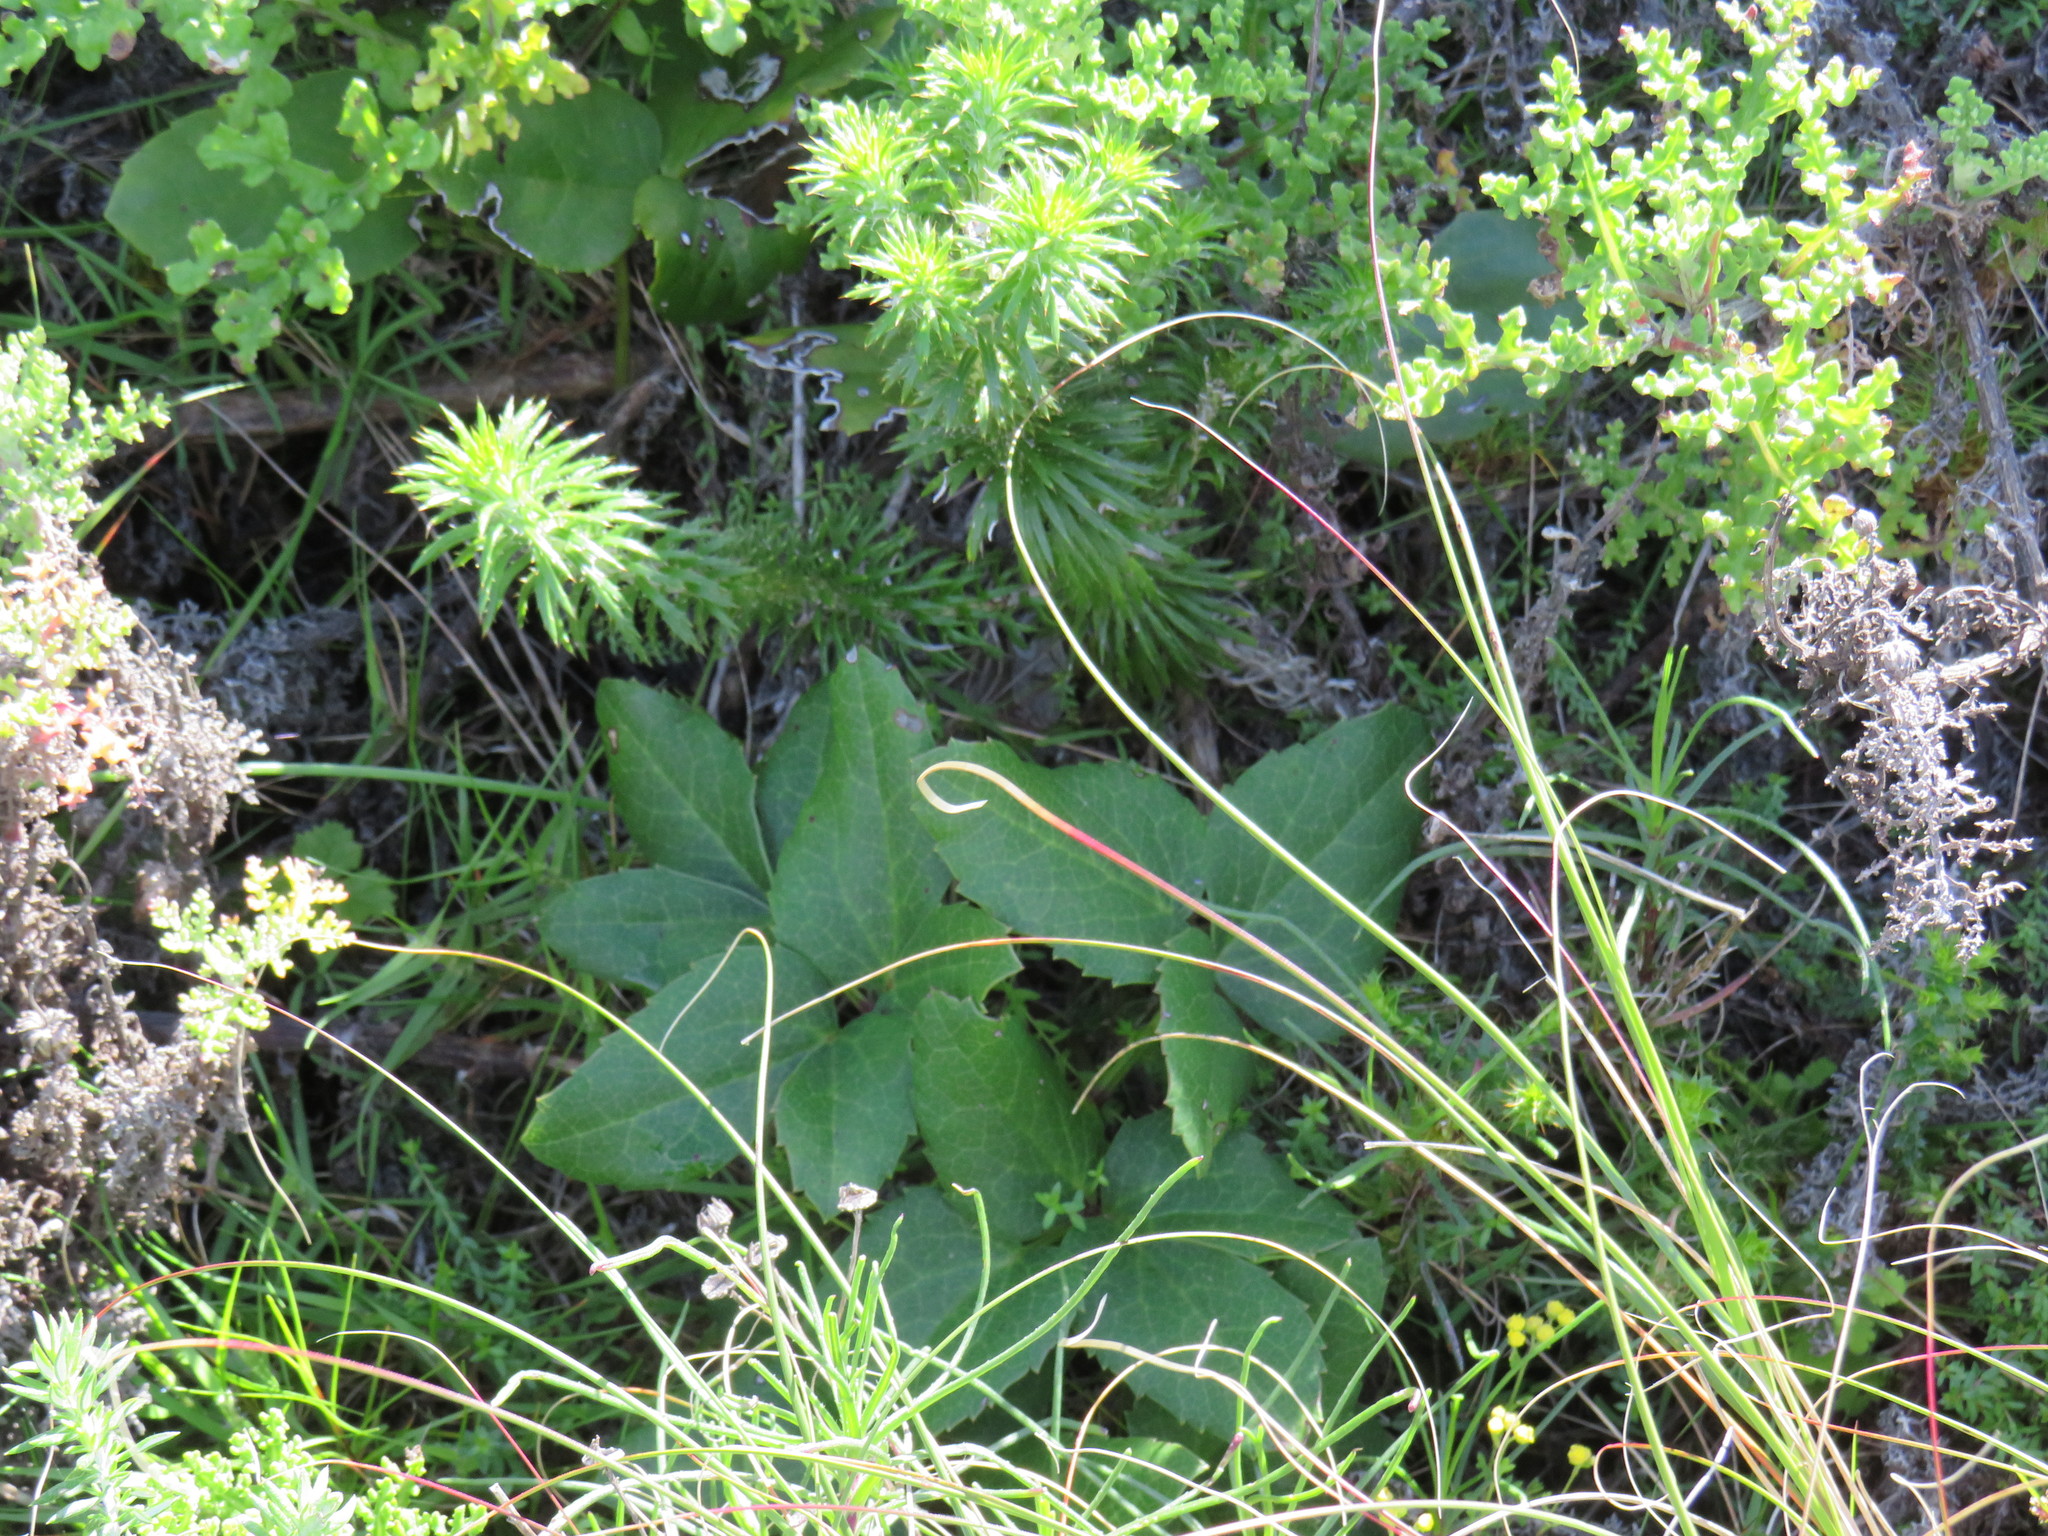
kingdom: Plantae
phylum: Tracheophyta
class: Magnoliopsida
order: Ranunculales
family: Ranunculaceae
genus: Knowltonia
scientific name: Knowltonia vesicatoria
